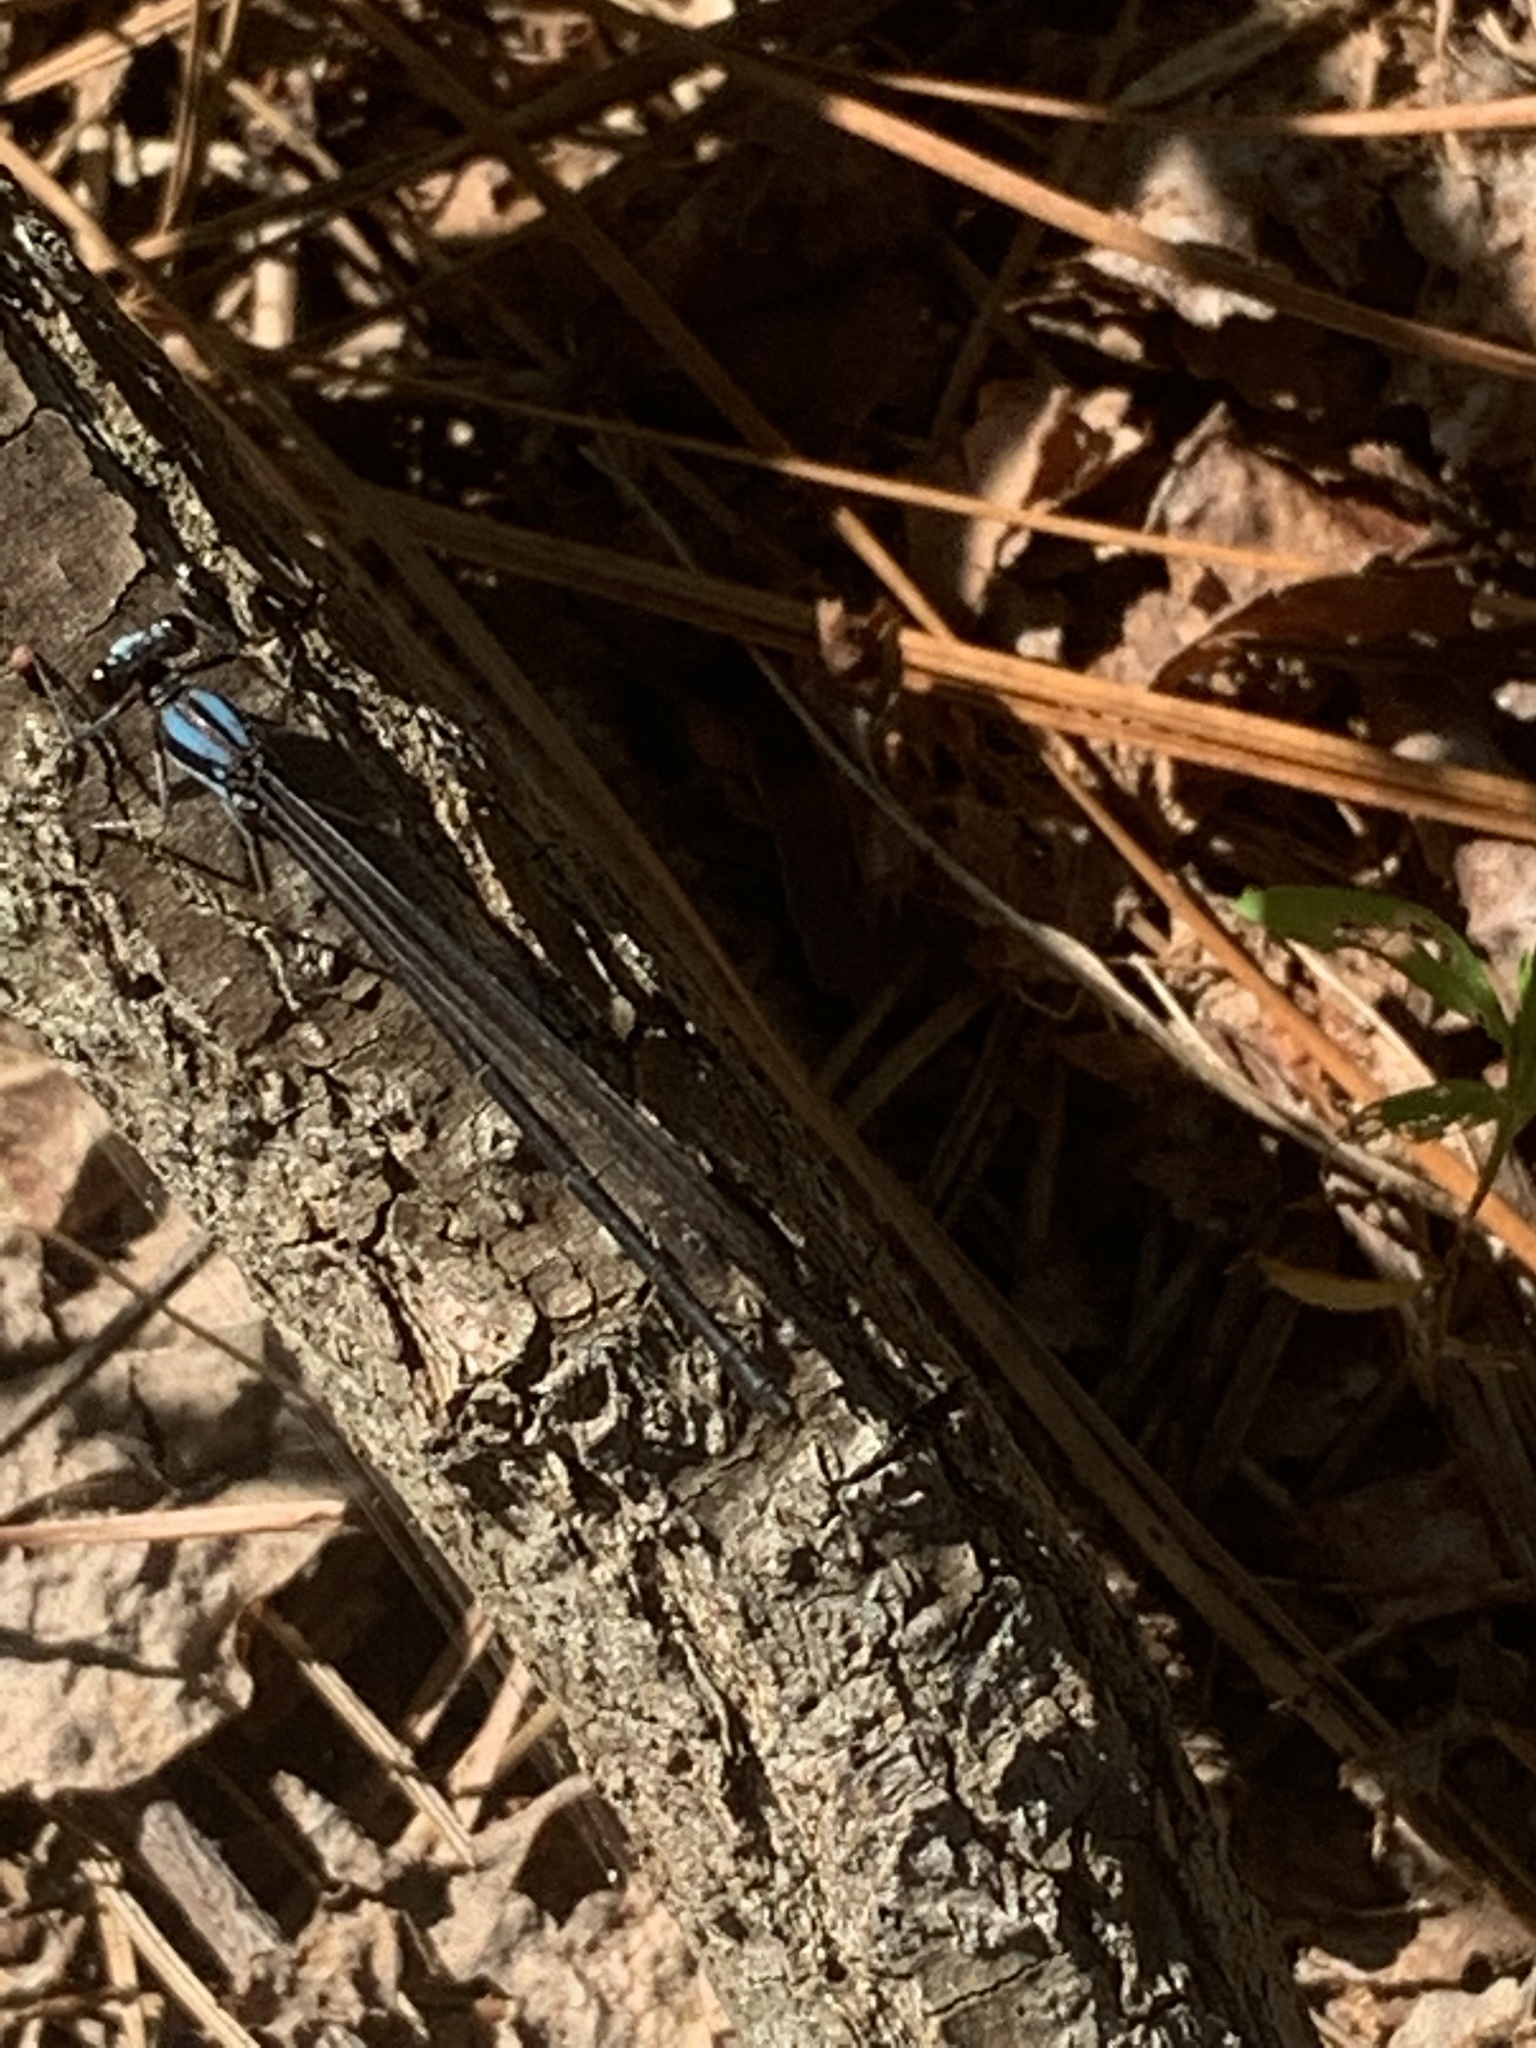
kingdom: Animalia
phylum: Arthropoda
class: Insecta
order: Odonata
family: Coenagrionidae
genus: Argia
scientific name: Argia tibialis
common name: Blue-tipped dancer
